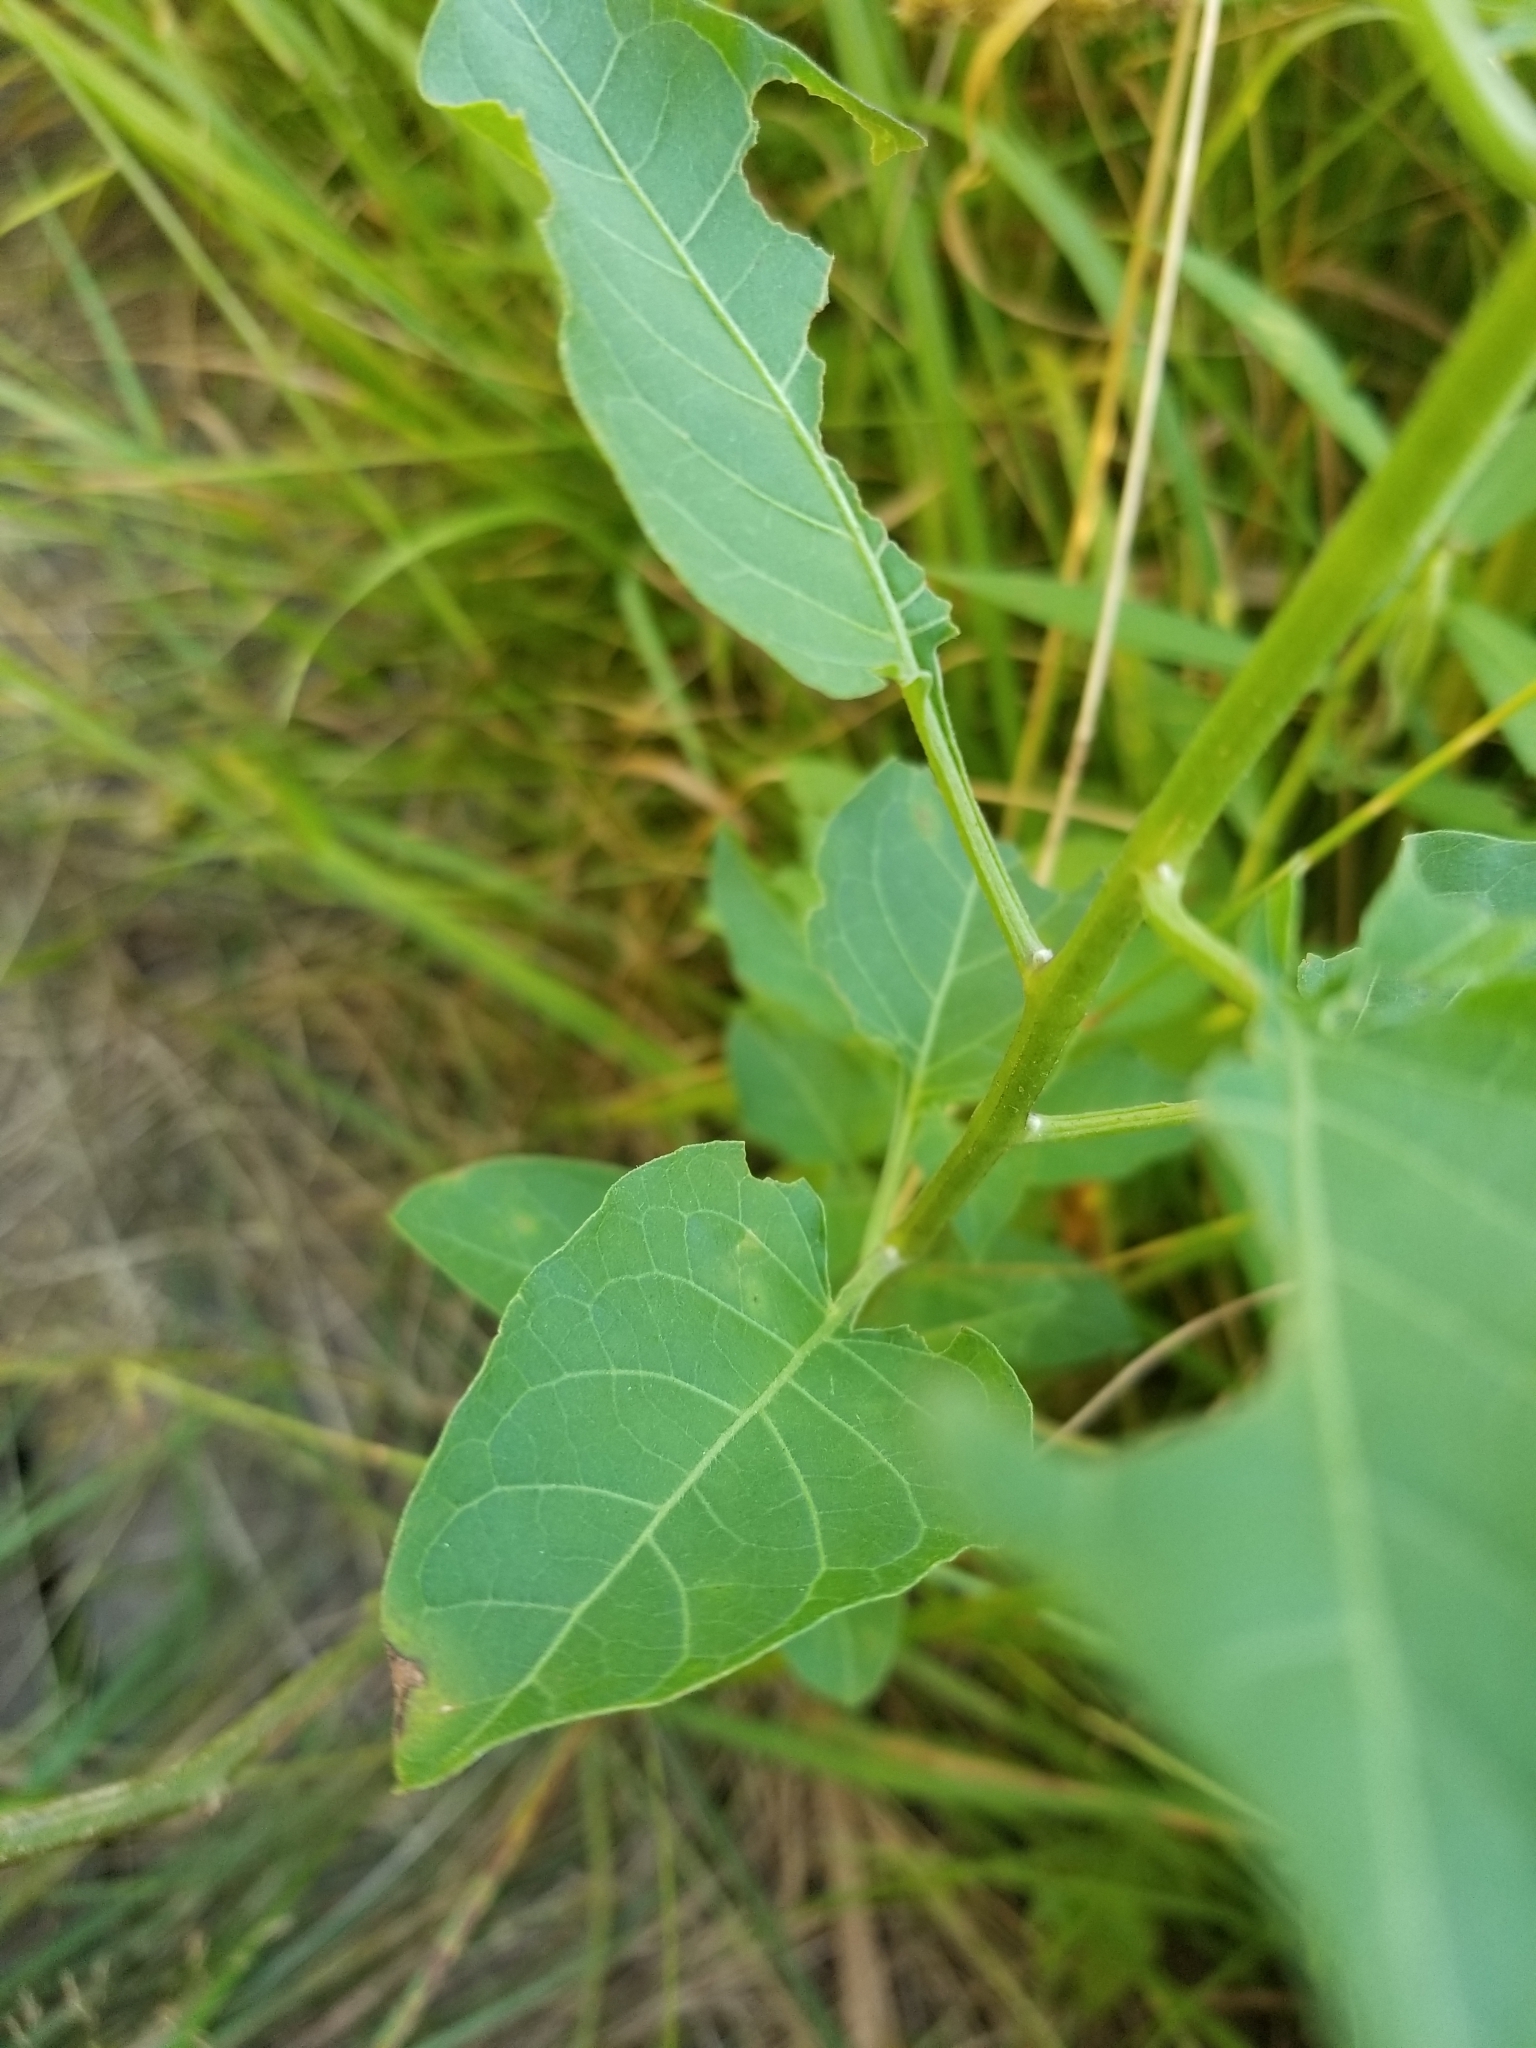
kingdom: Plantae
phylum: Tracheophyta
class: Magnoliopsida
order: Solanales
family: Solanaceae
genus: Solanum
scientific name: Solanum dulcamara
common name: Climbing nightshade
